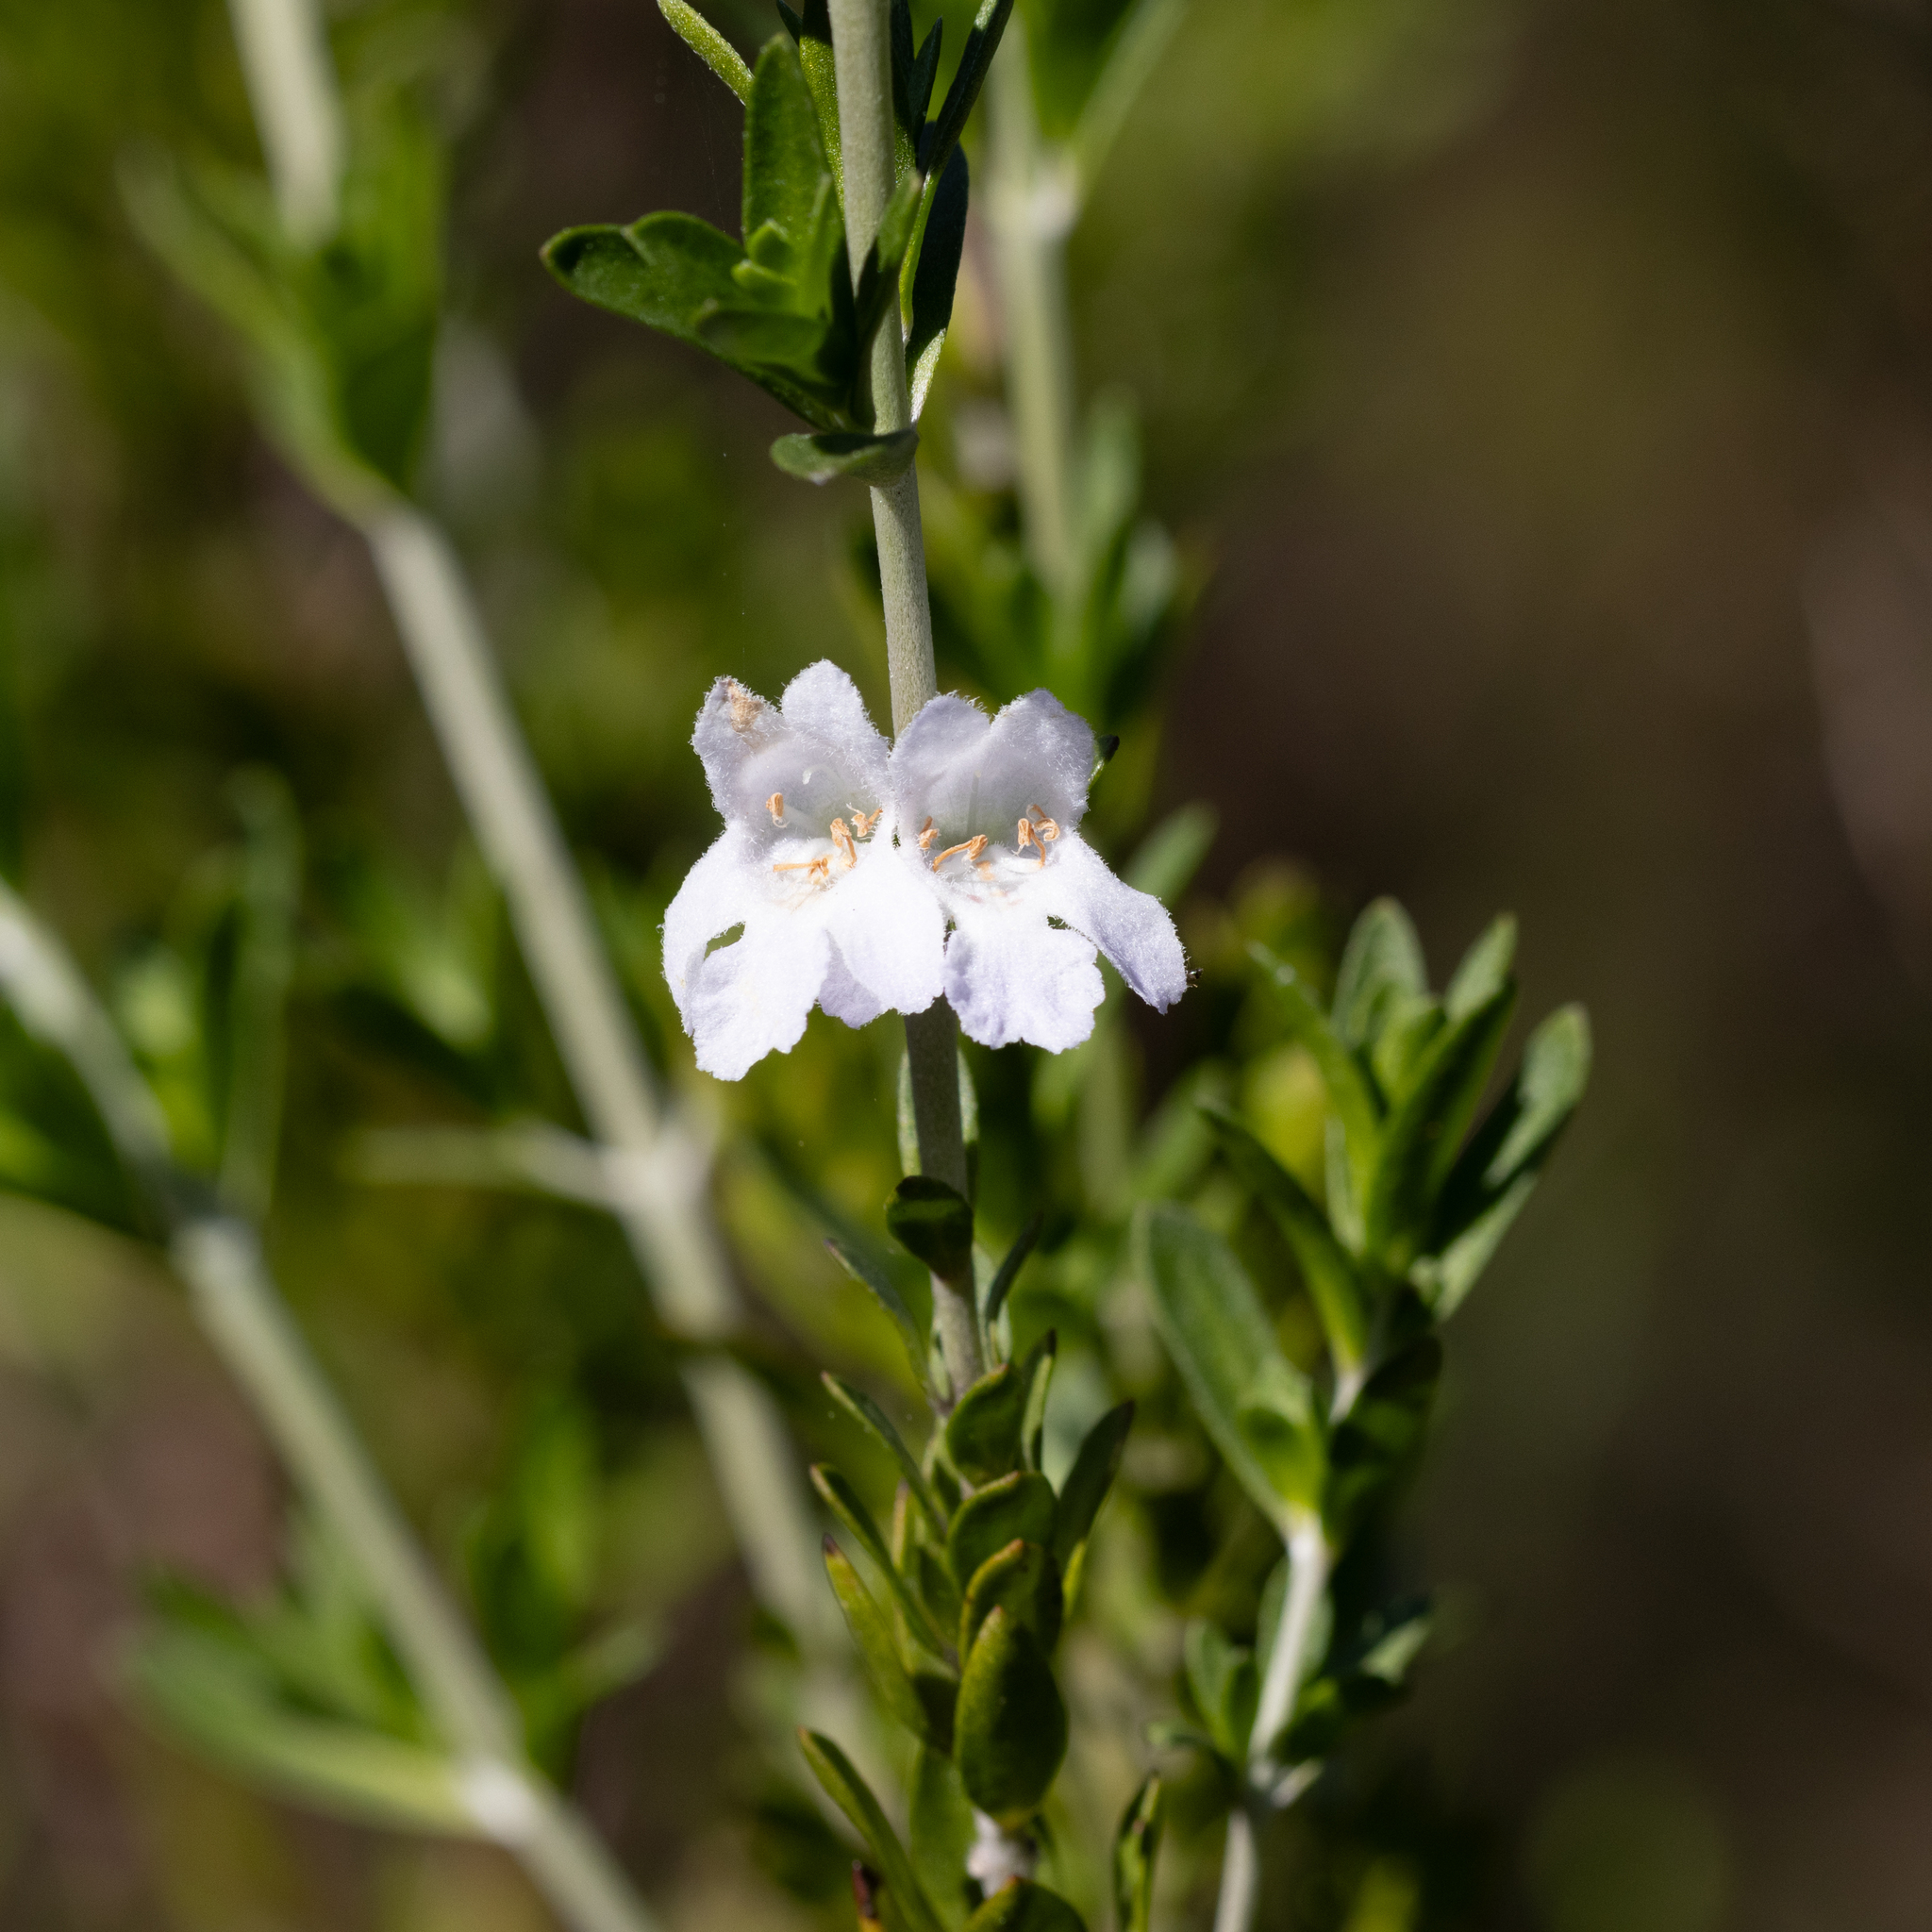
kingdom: Plantae
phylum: Tracheophyta
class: Magnoliopsida
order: Lamiales
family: Lamiaceae
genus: Prostanthera
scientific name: Prostanthera behriana
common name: Downy mintbush
